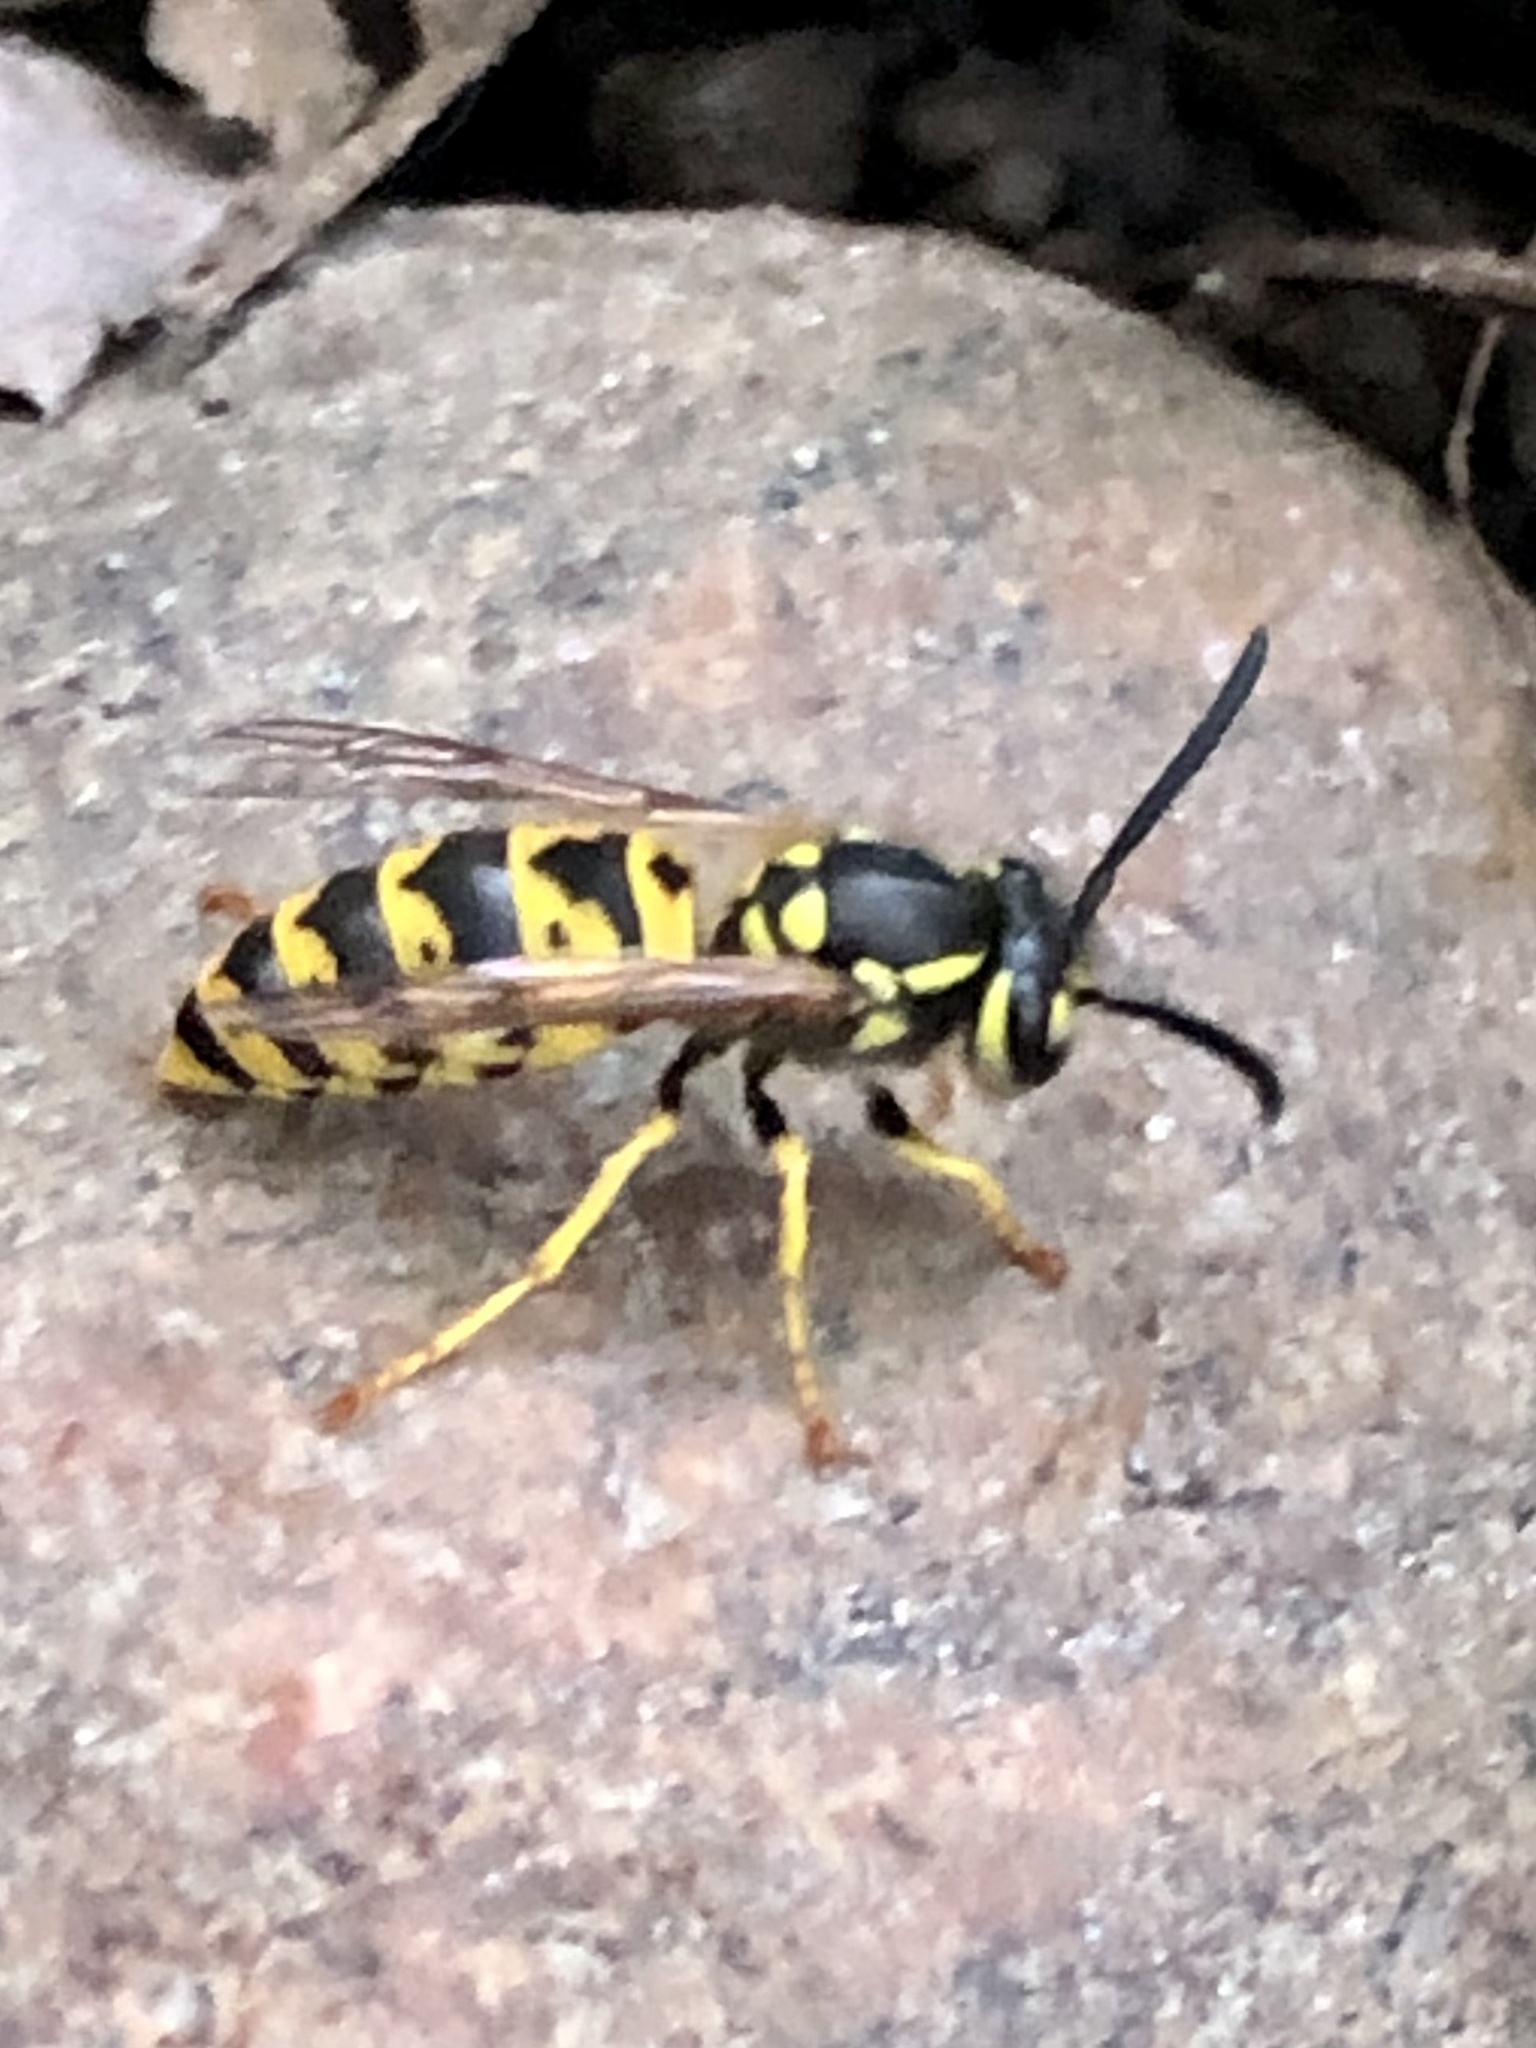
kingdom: Animalia
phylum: Arthropoda
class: Insecta
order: Hymenoptera
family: Vespidae
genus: Vespula
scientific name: Vespula germanica
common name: German wasp
